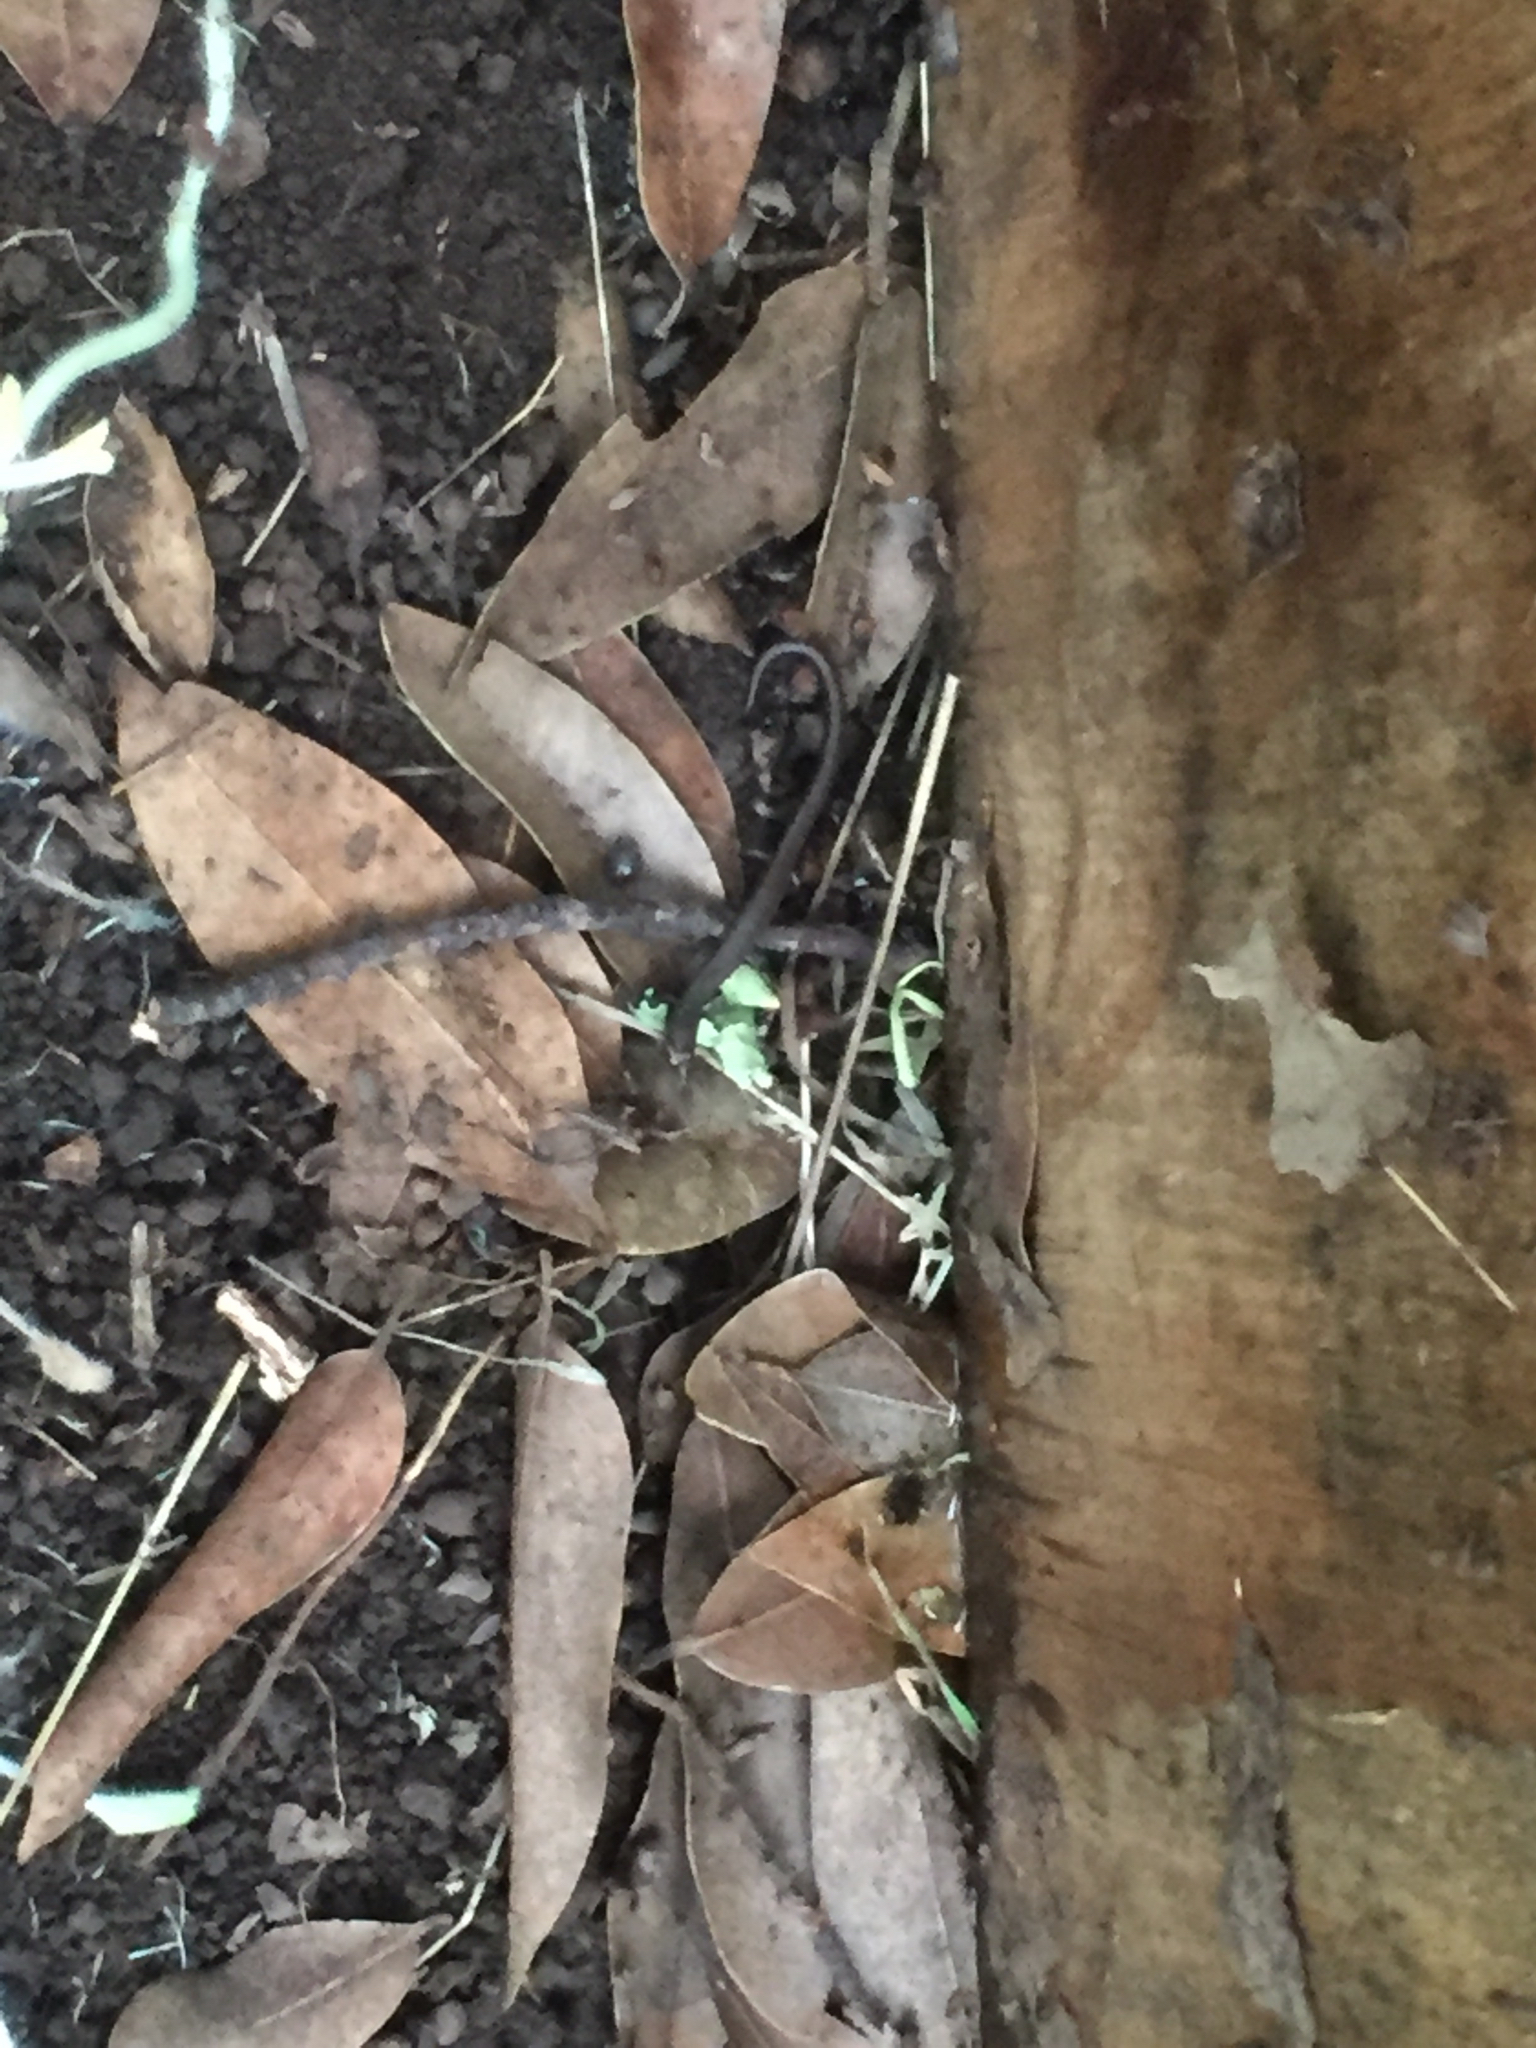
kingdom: Animalia
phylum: Chordata
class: Amphibia
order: Caudata
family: Plethodontidae
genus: Batrachoseps
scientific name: Batrachoseps attenuatus
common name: California slender salamander
